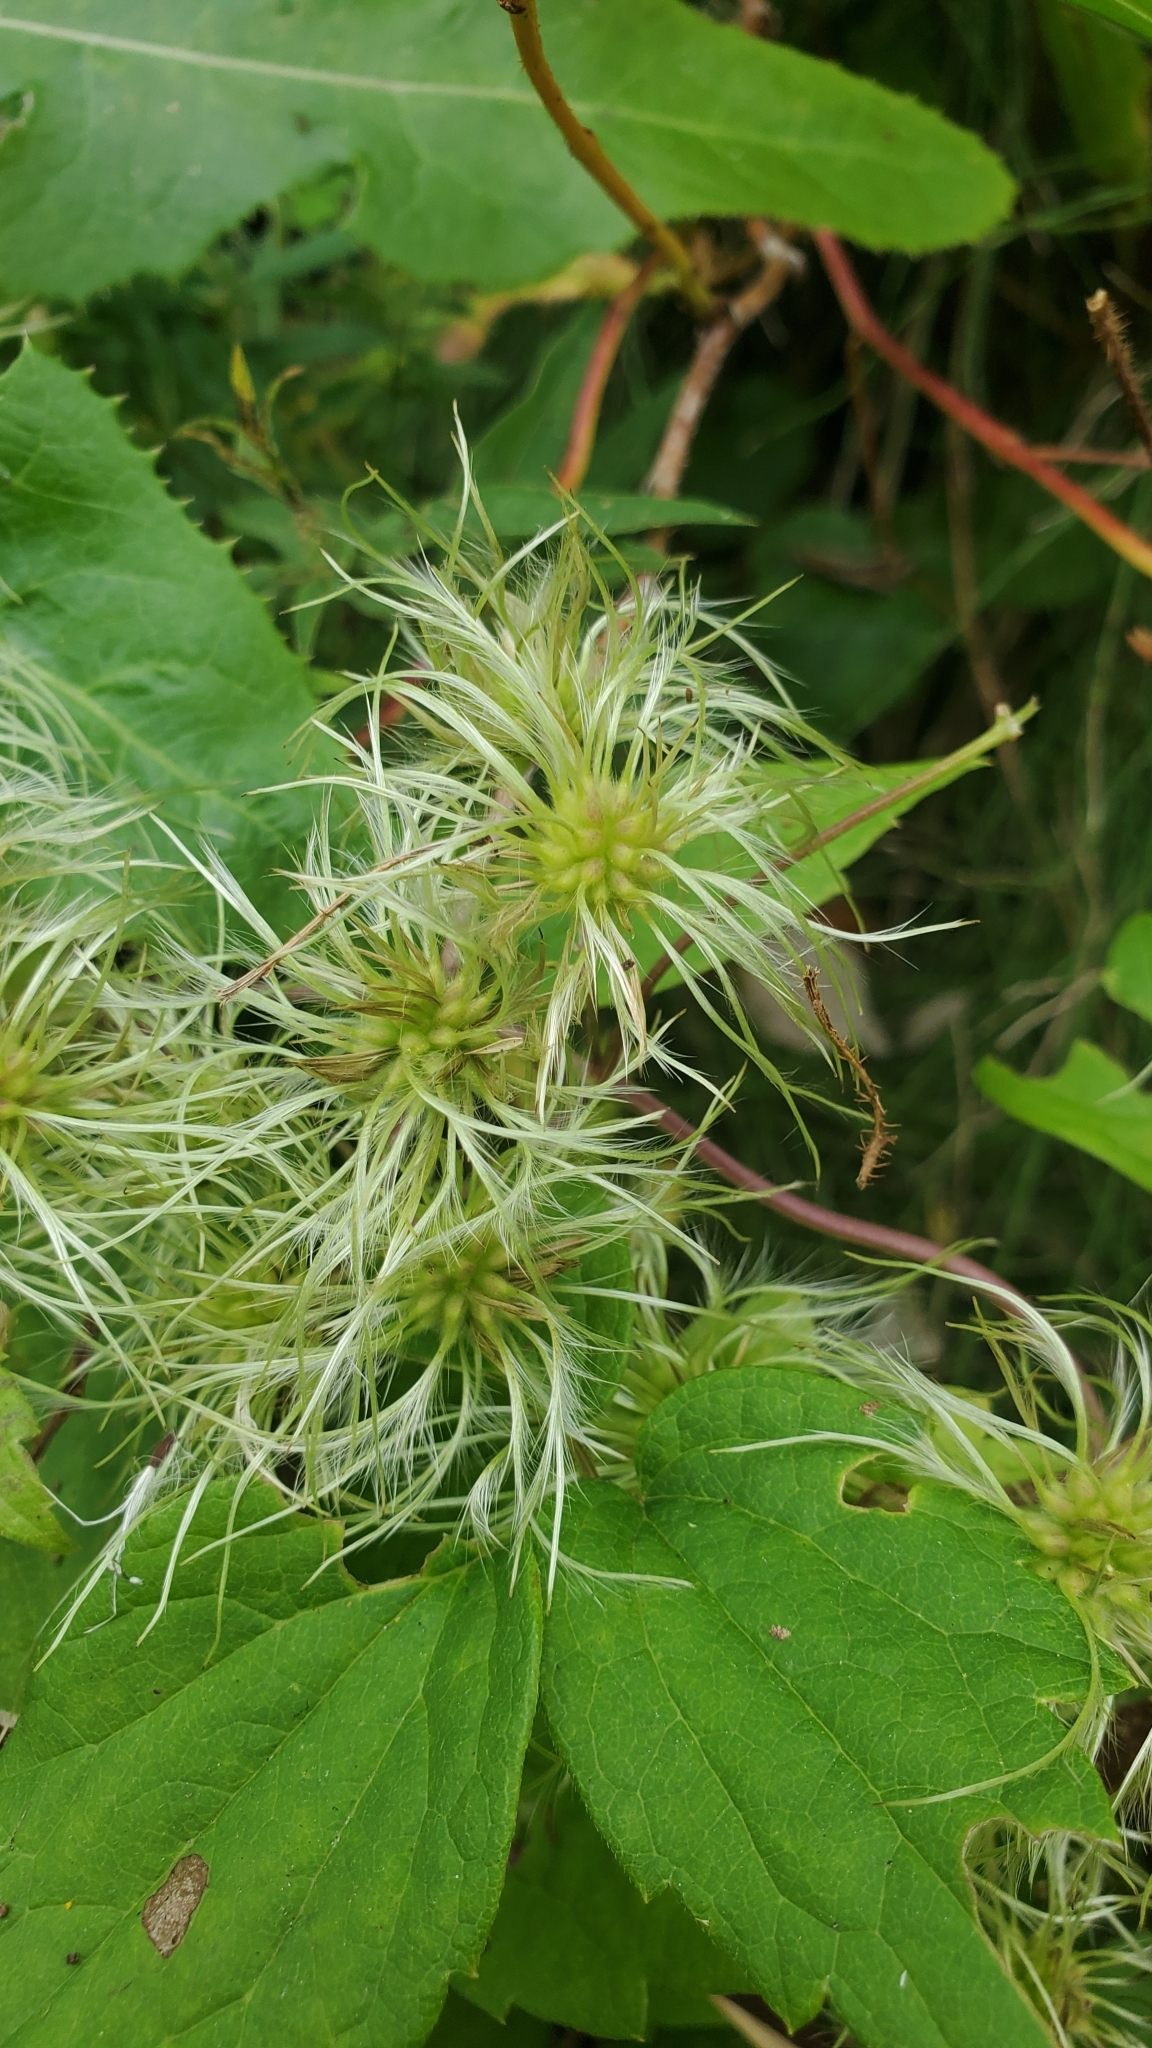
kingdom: Plantae
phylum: Tracheophyta
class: Magnoliopsida
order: Ranunculales
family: Ranunculaceae
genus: Clematis
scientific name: Clematis virginiana
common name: Virgin's-bower
